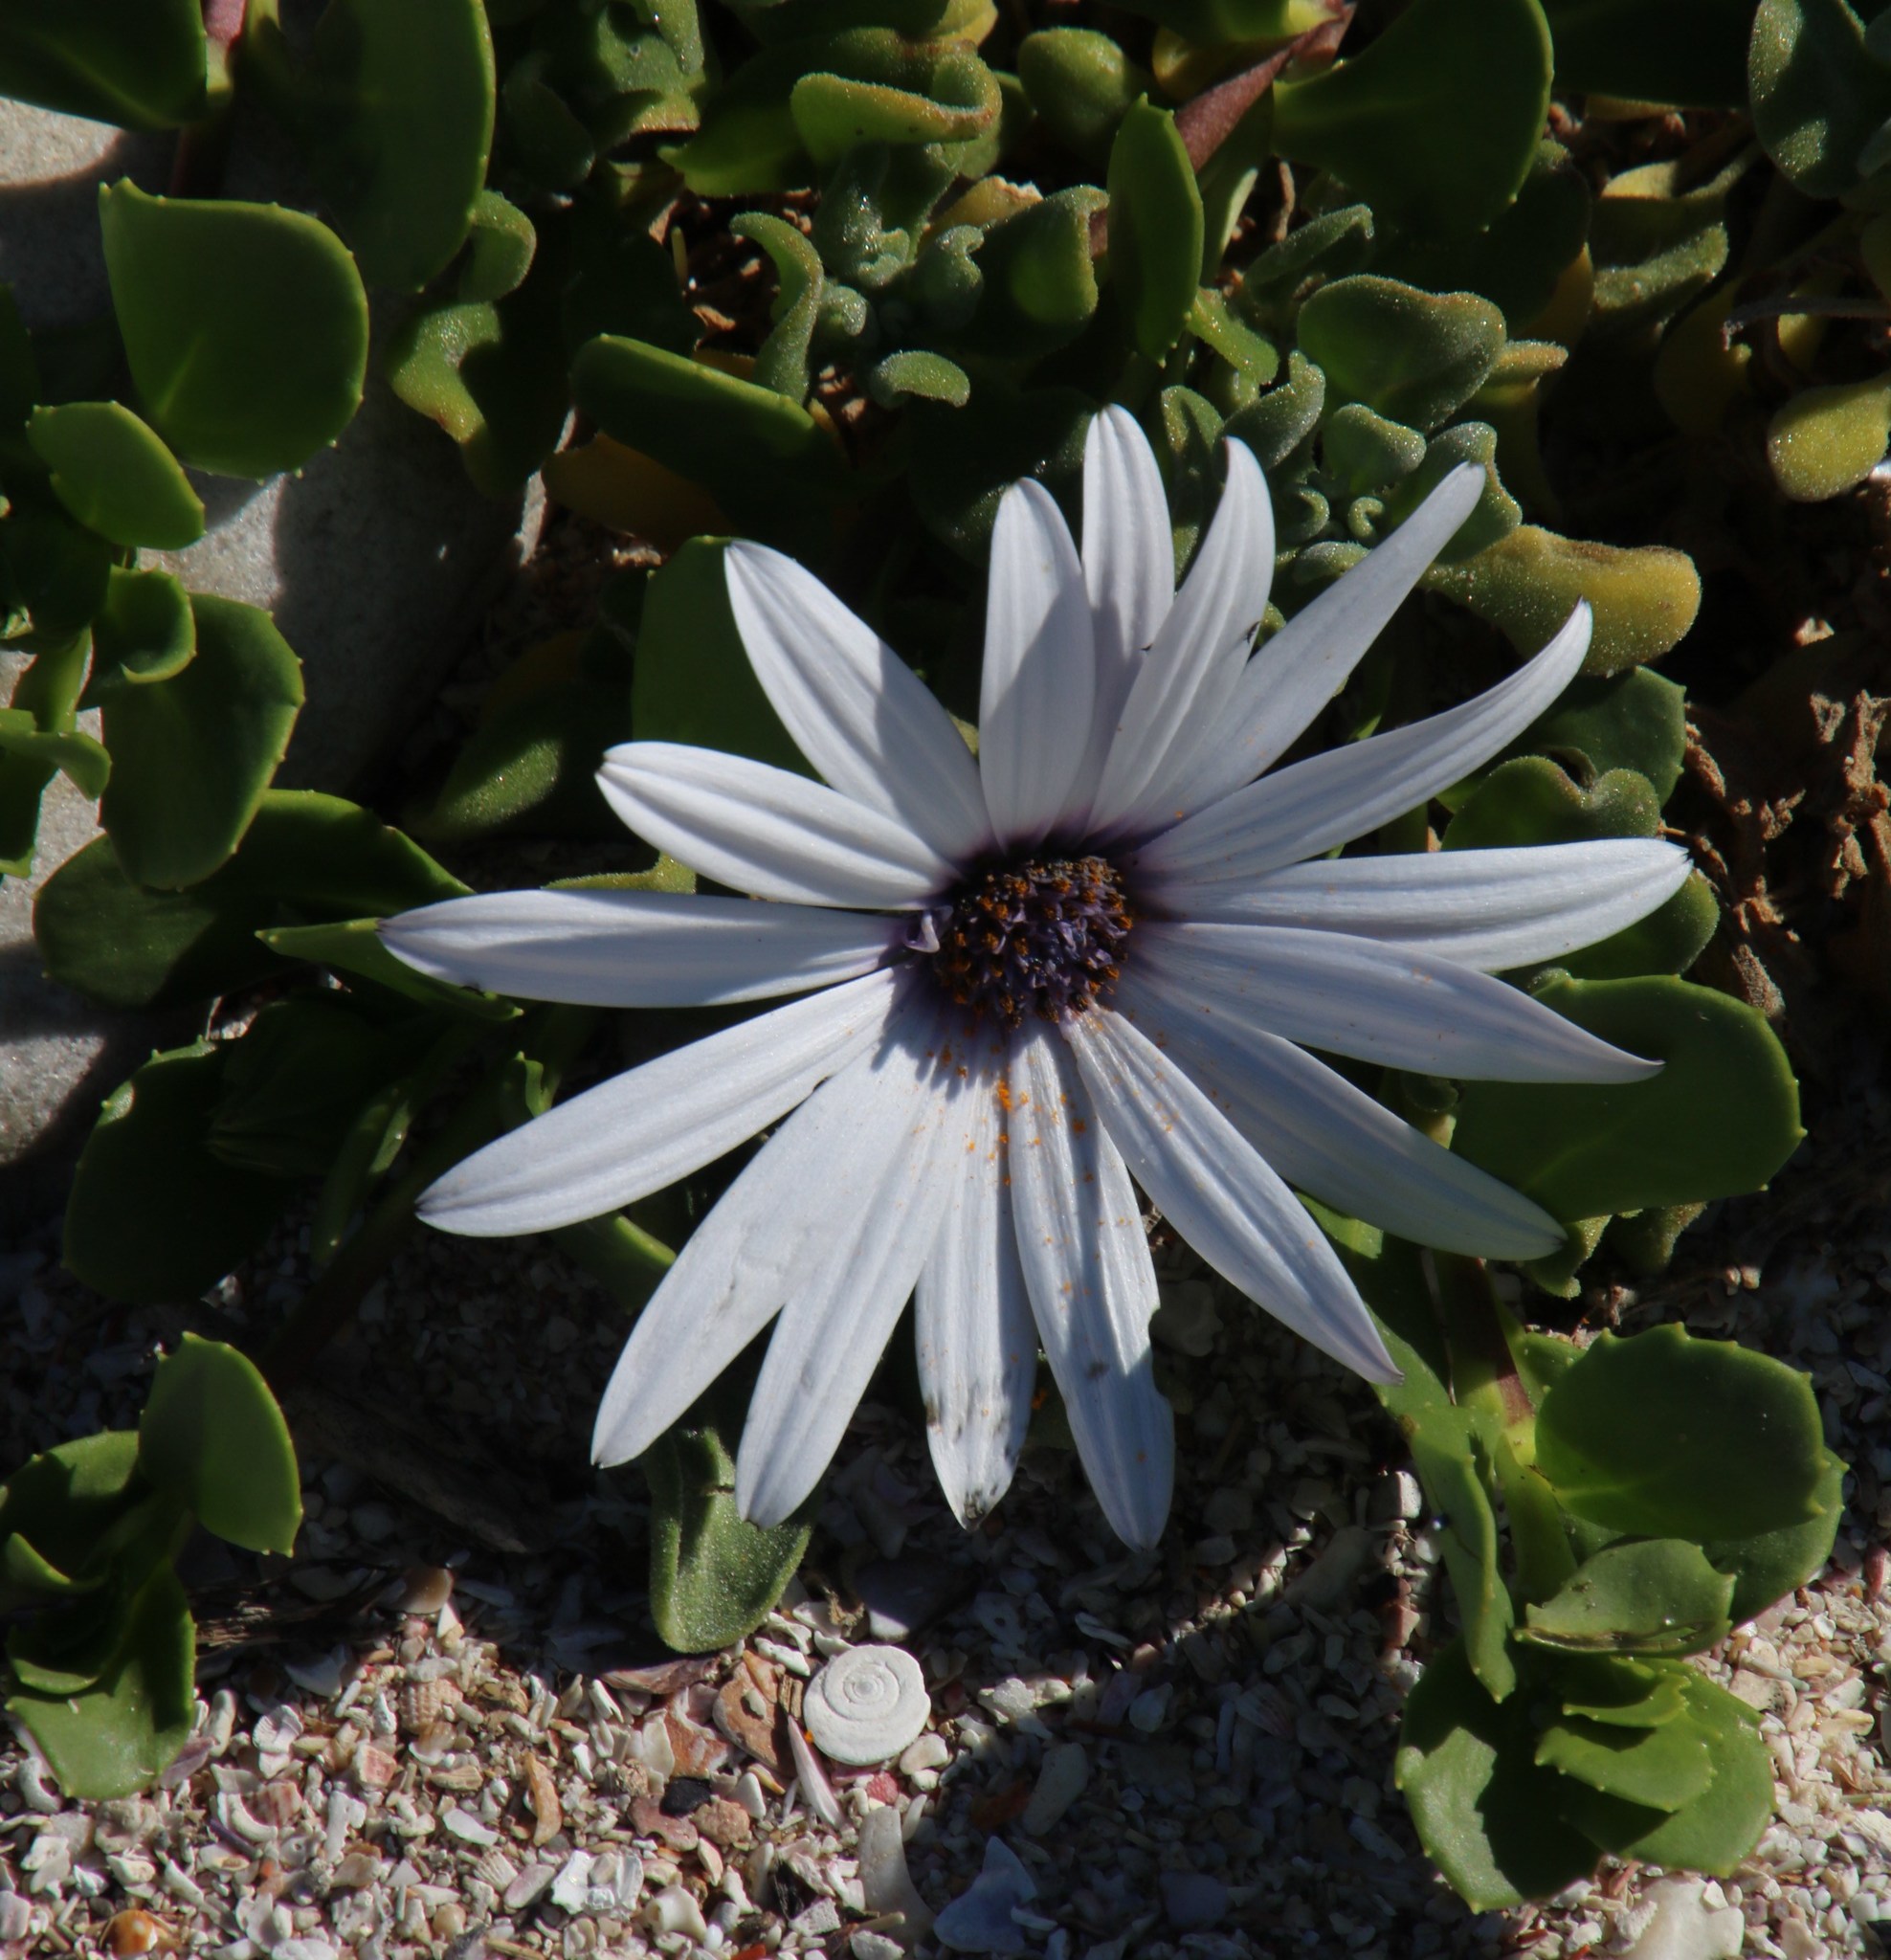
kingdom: Plantae
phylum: Tracheophyta
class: Magnoliopsida
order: Asterales
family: Asteraceae
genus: Dimorphotheca
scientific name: Dimorphotheca fruticosa
